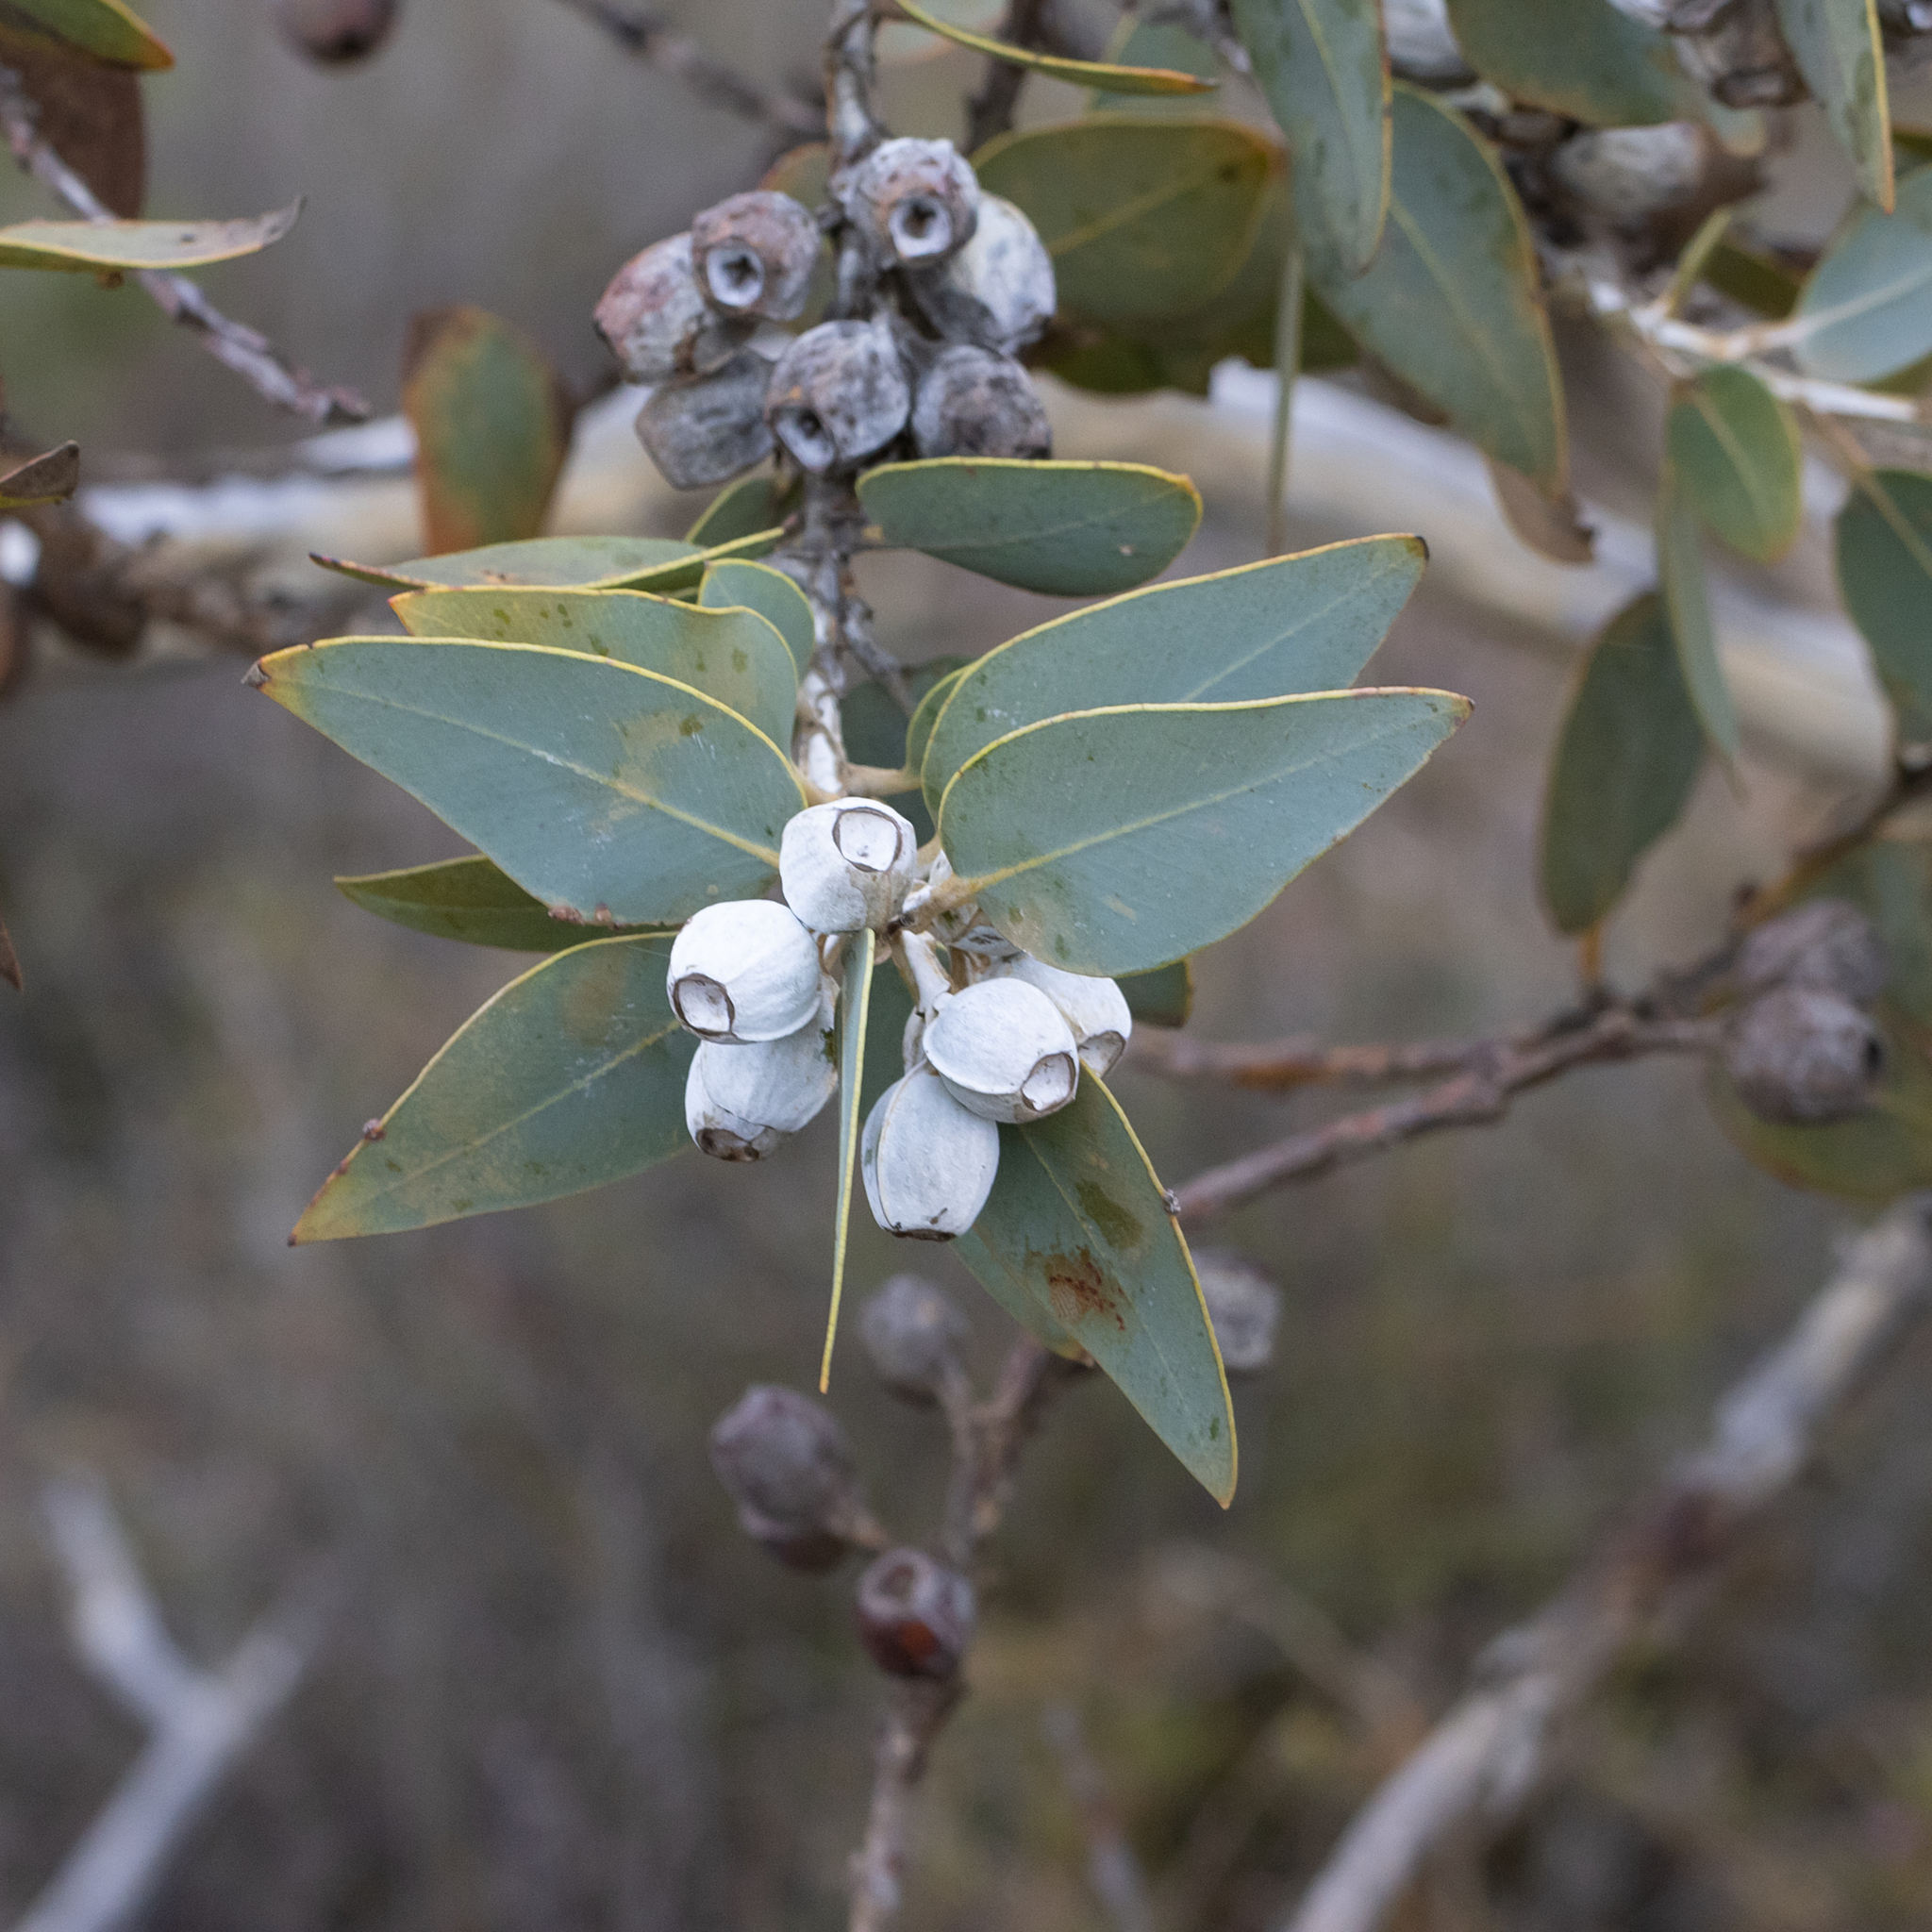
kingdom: Plantae
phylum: Tracheophyta
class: Magnoliopsida
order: Myrtales
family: Myrtaceae
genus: Eucalyptus
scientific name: Eucalyptus tetragona
